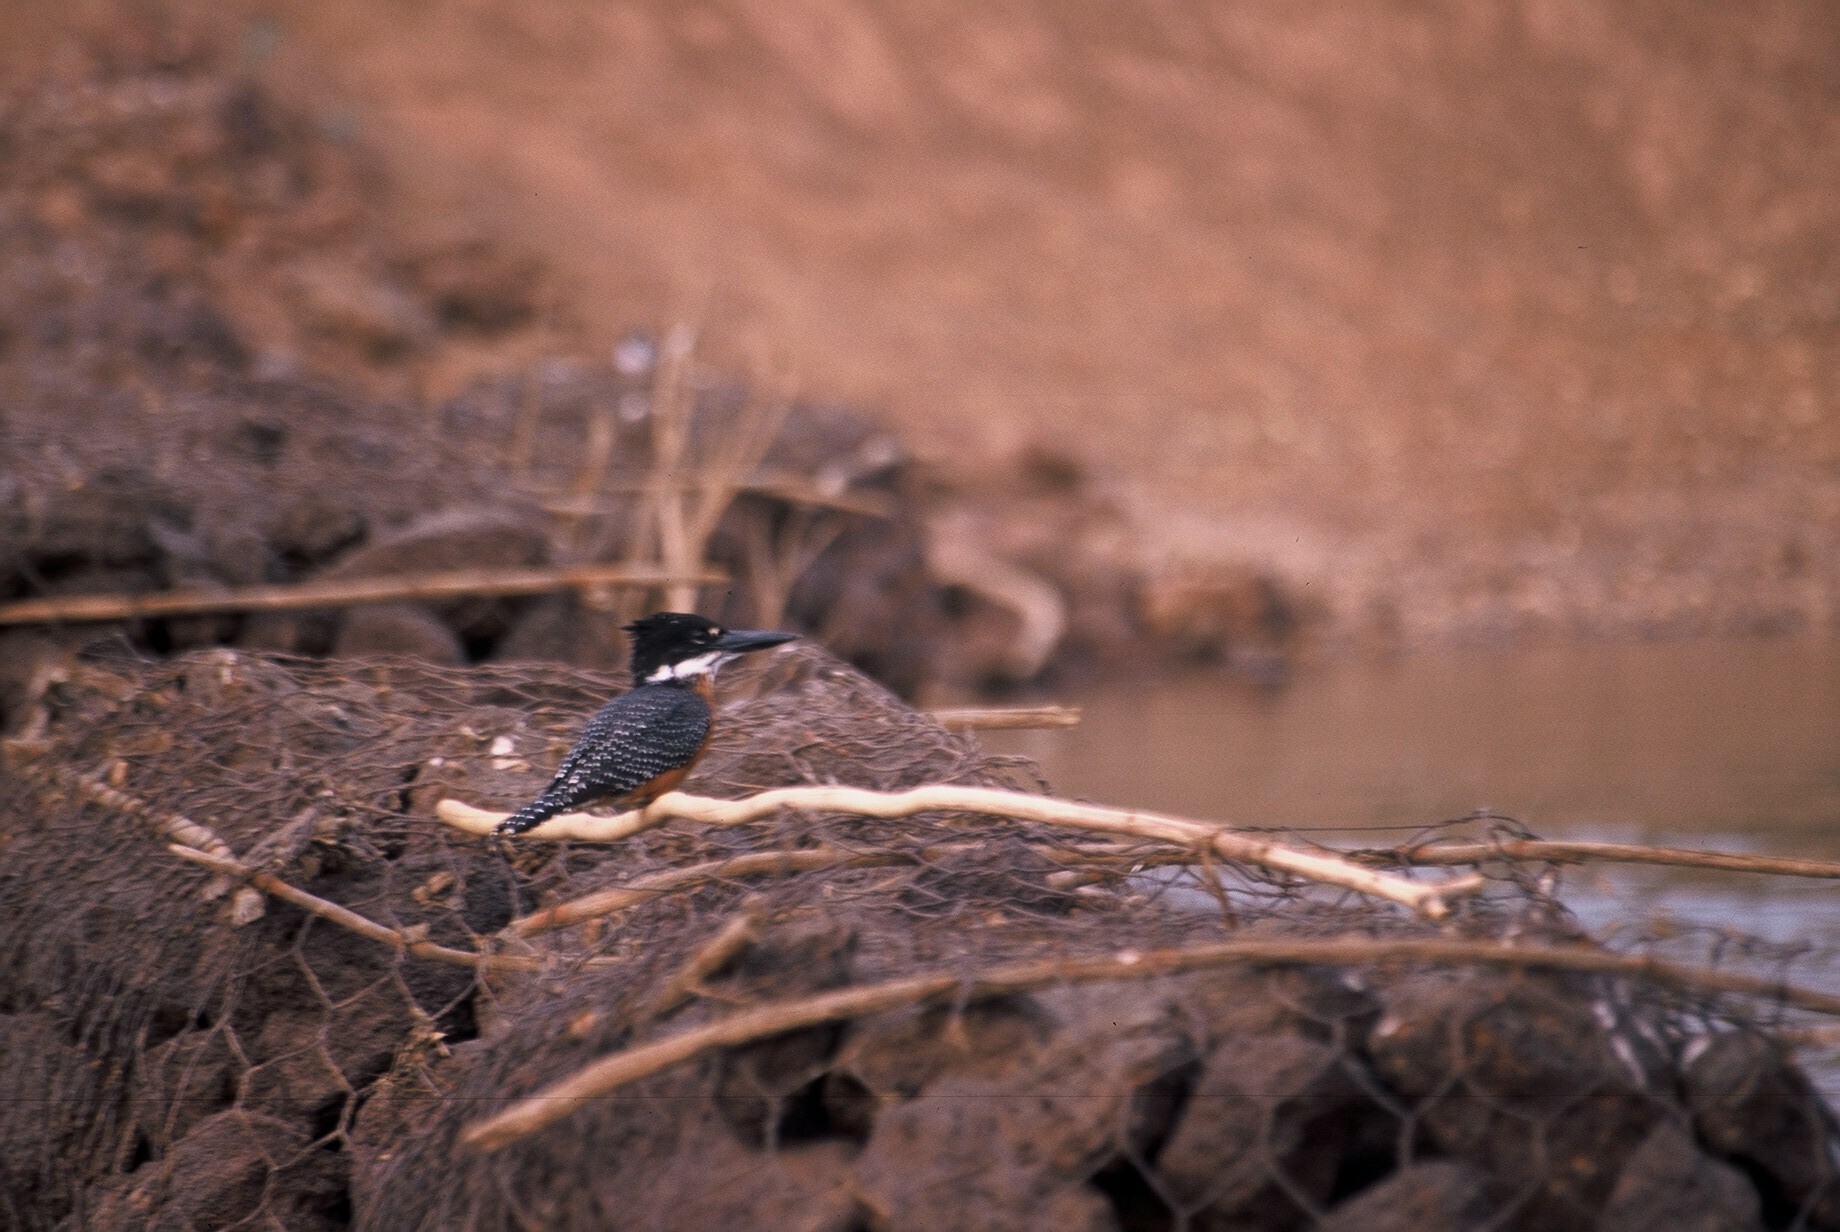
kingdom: Animalia
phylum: Chordata
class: Aves
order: Coraciiformes
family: Alcedinidae
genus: Megaceryle
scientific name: Megaceryle maxima
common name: Giant kingfisher
